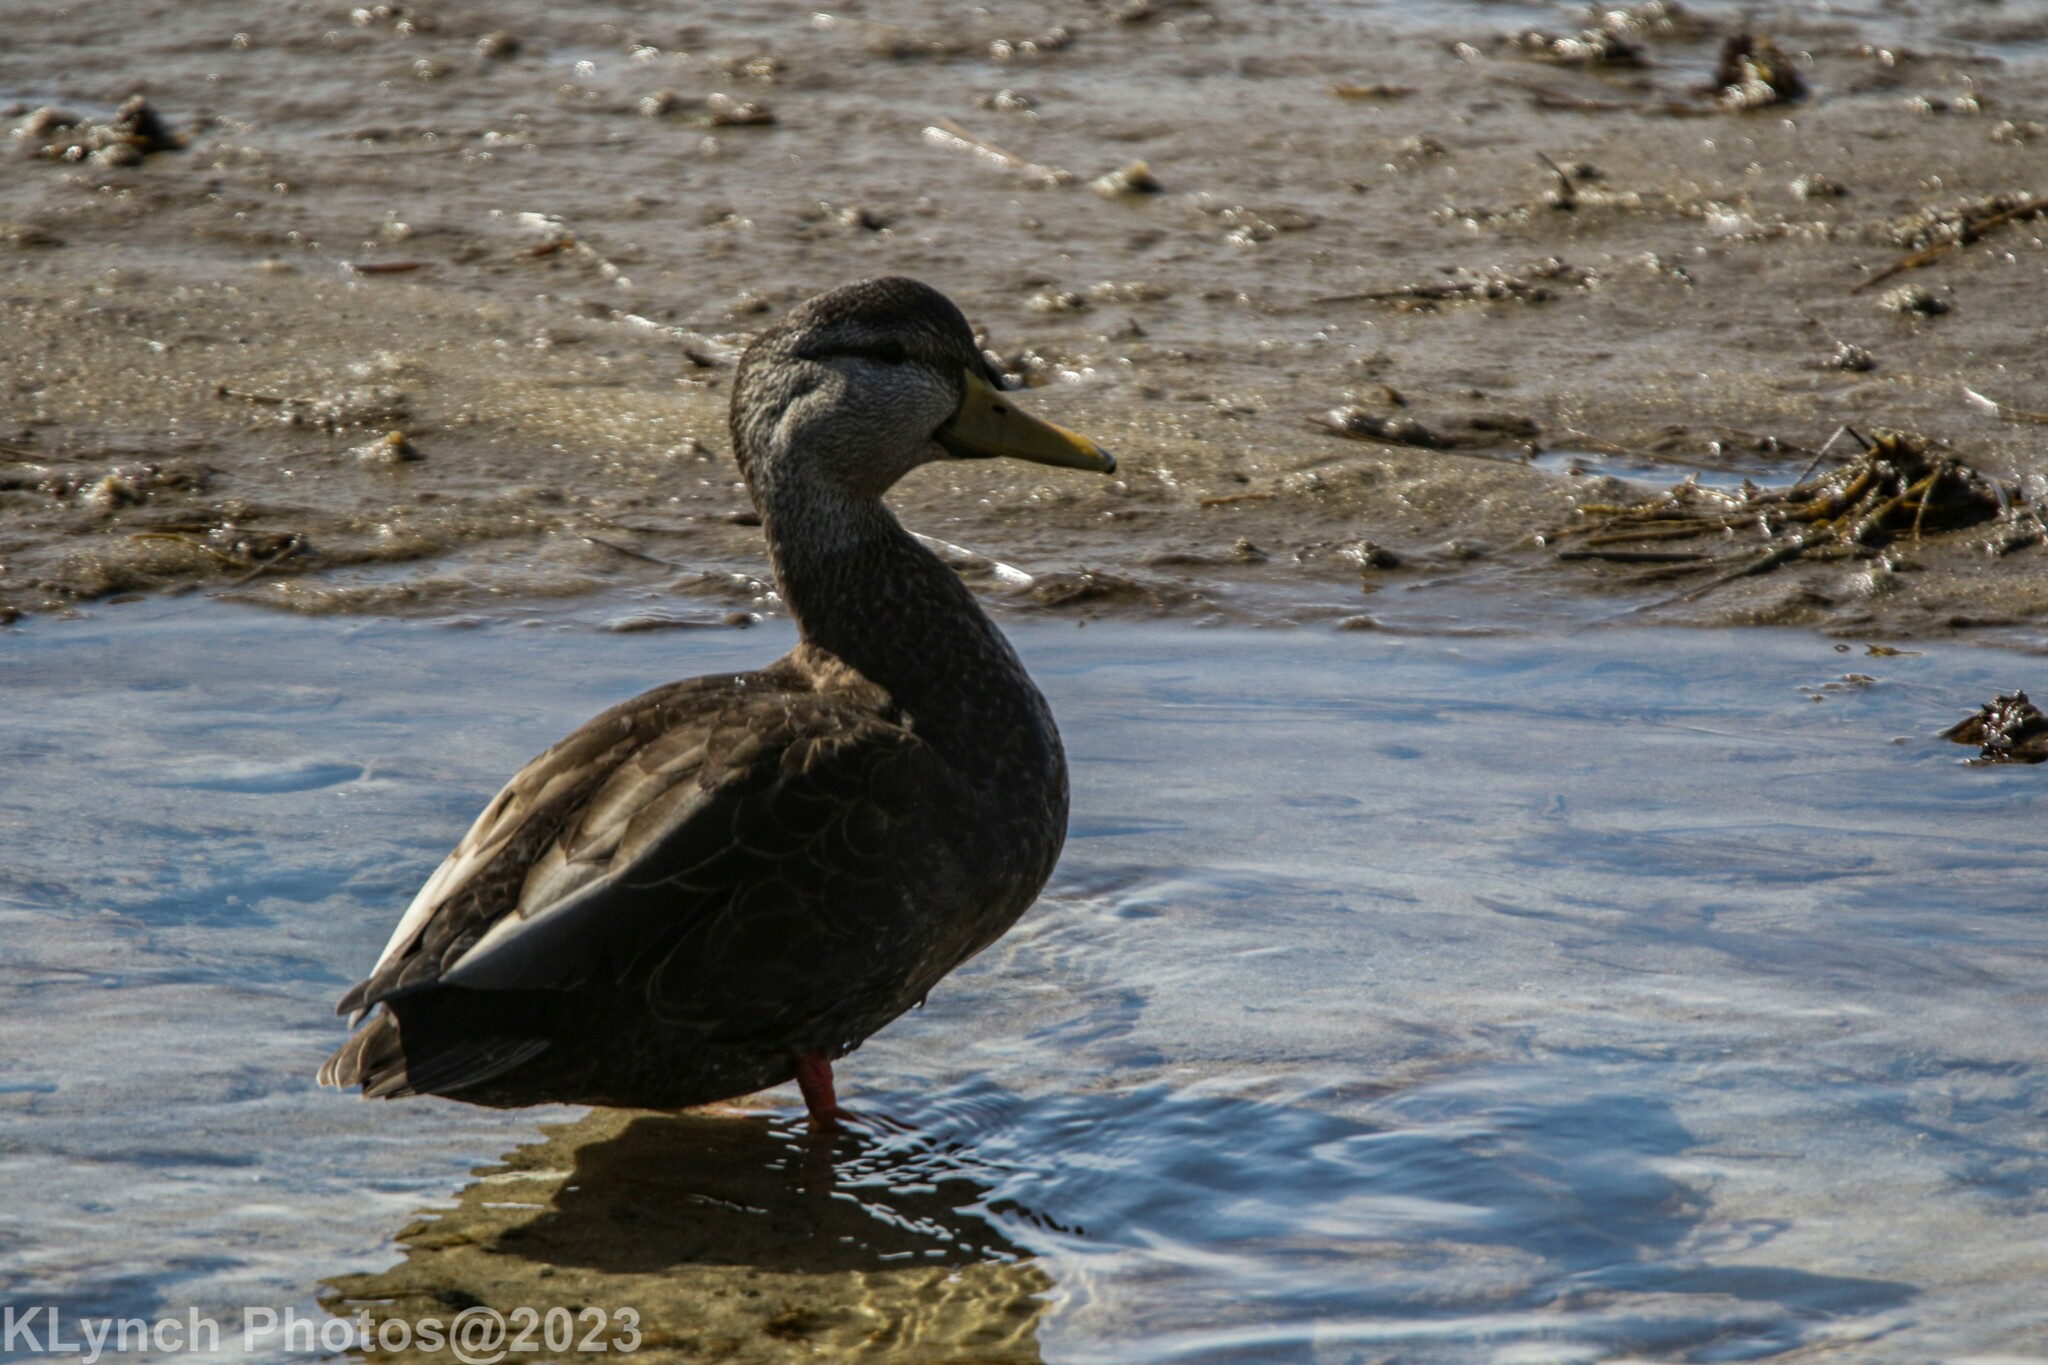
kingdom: Animalia
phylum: Chordata
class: Aves
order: Anseriformes
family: Anatidae
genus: Anas
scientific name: Anas rubripes
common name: American black duck
